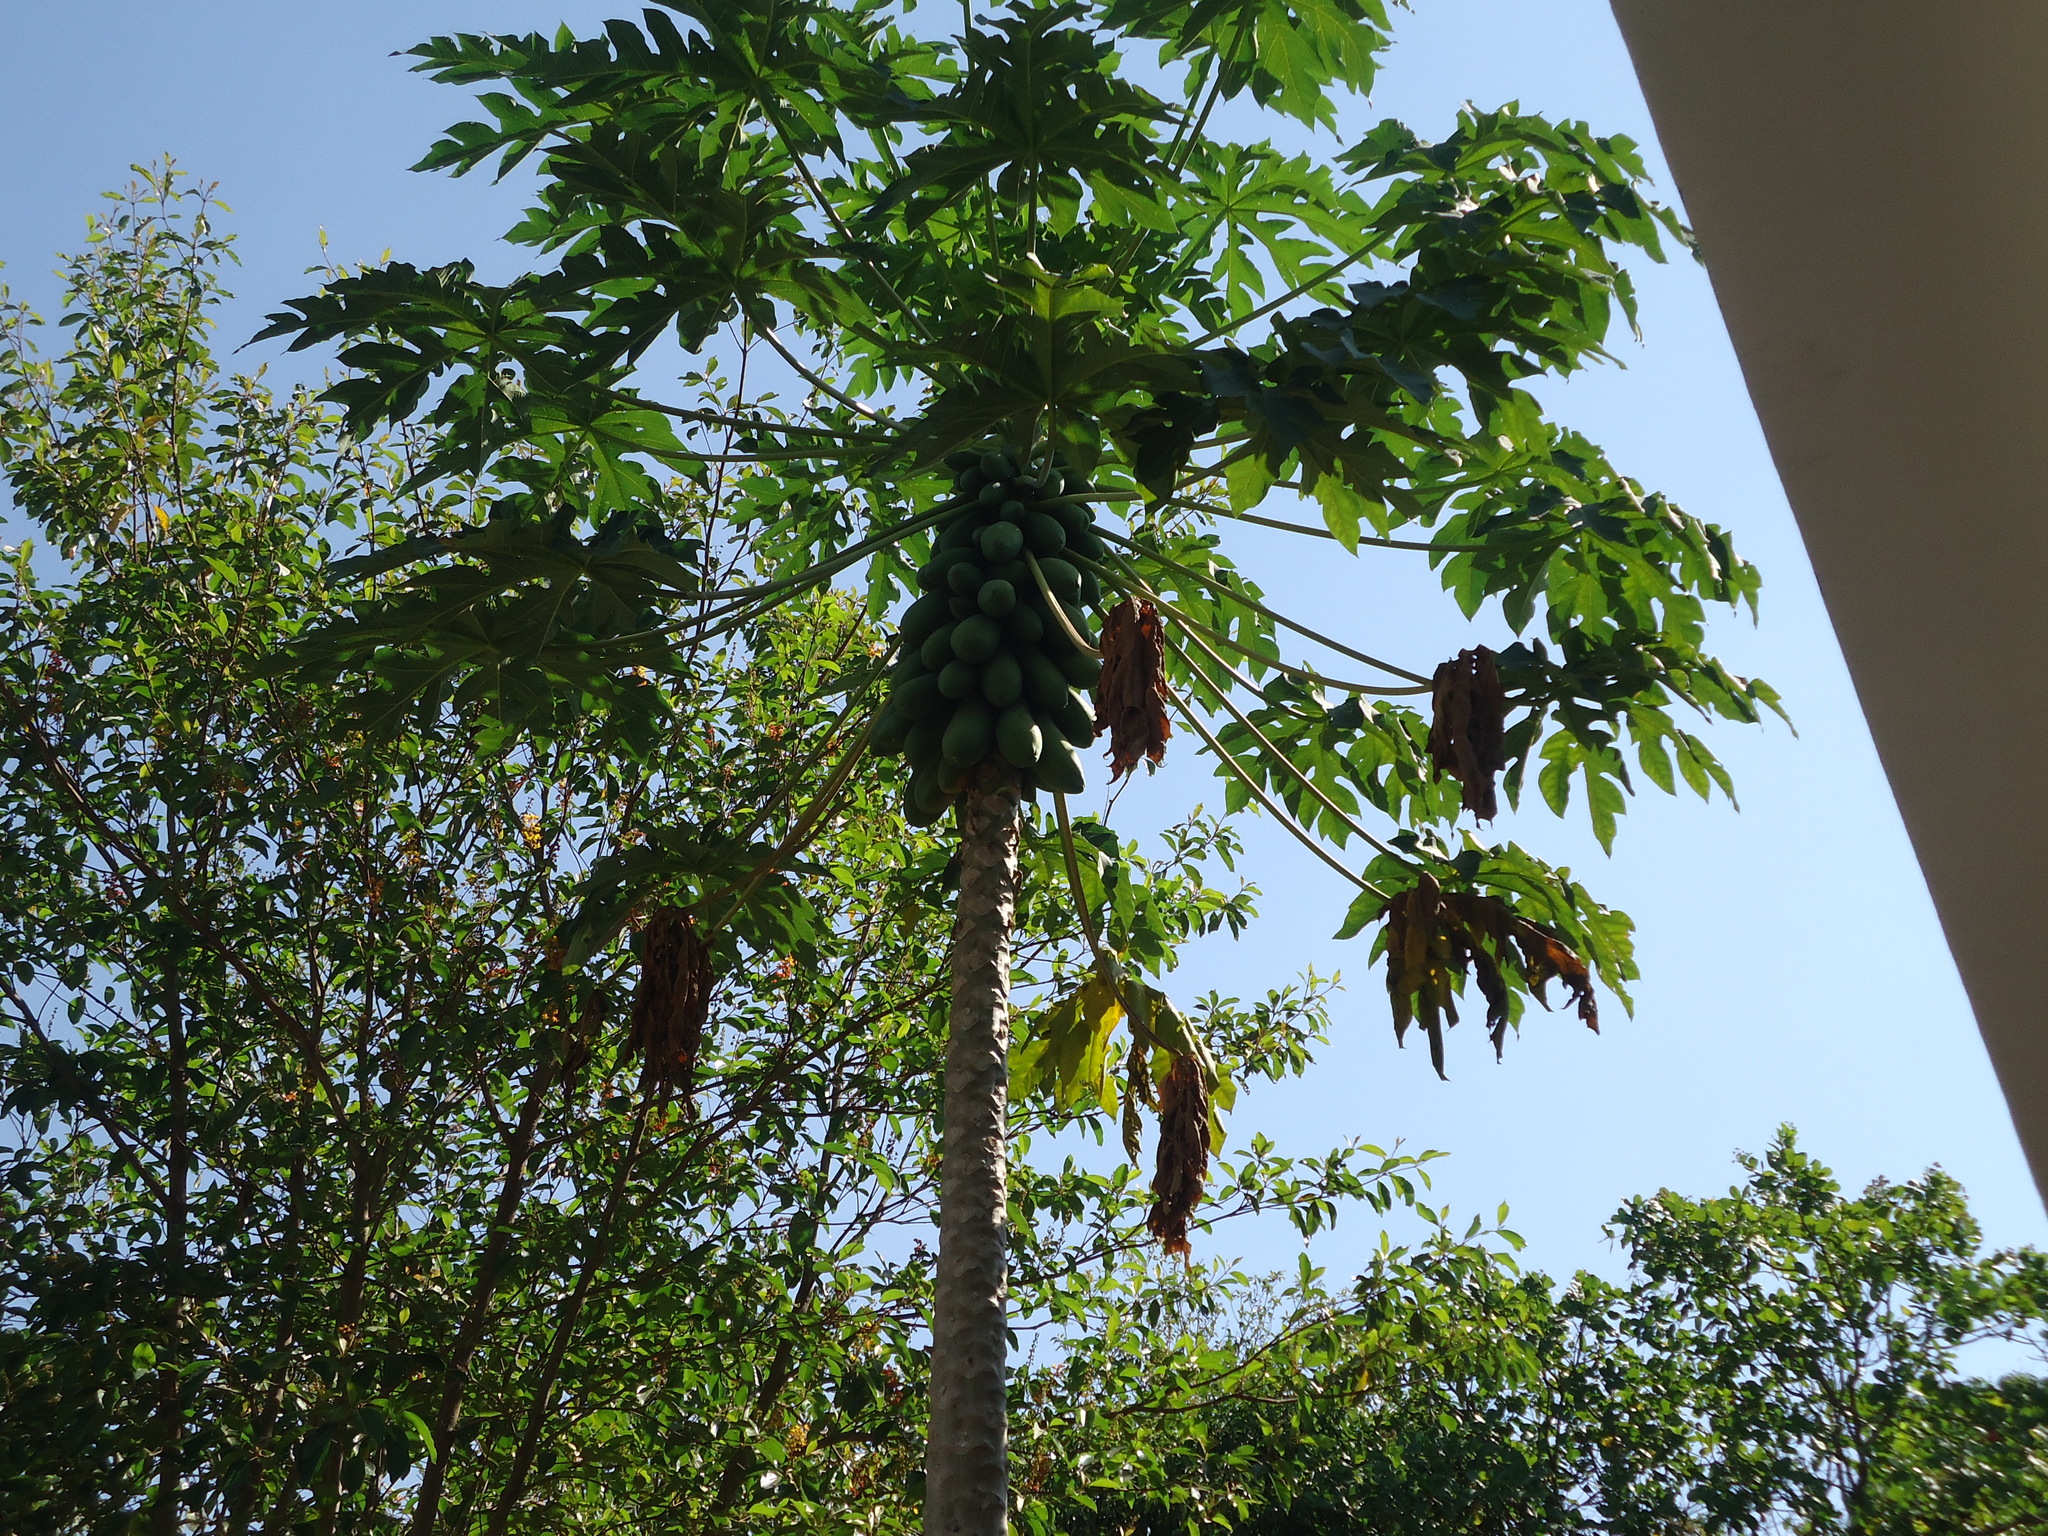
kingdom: Plantae
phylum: Tracheophyta
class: Magnoliopsida
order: Brassicales
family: Caricaceae
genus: Carica
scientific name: Carica papaya
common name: Papaya
